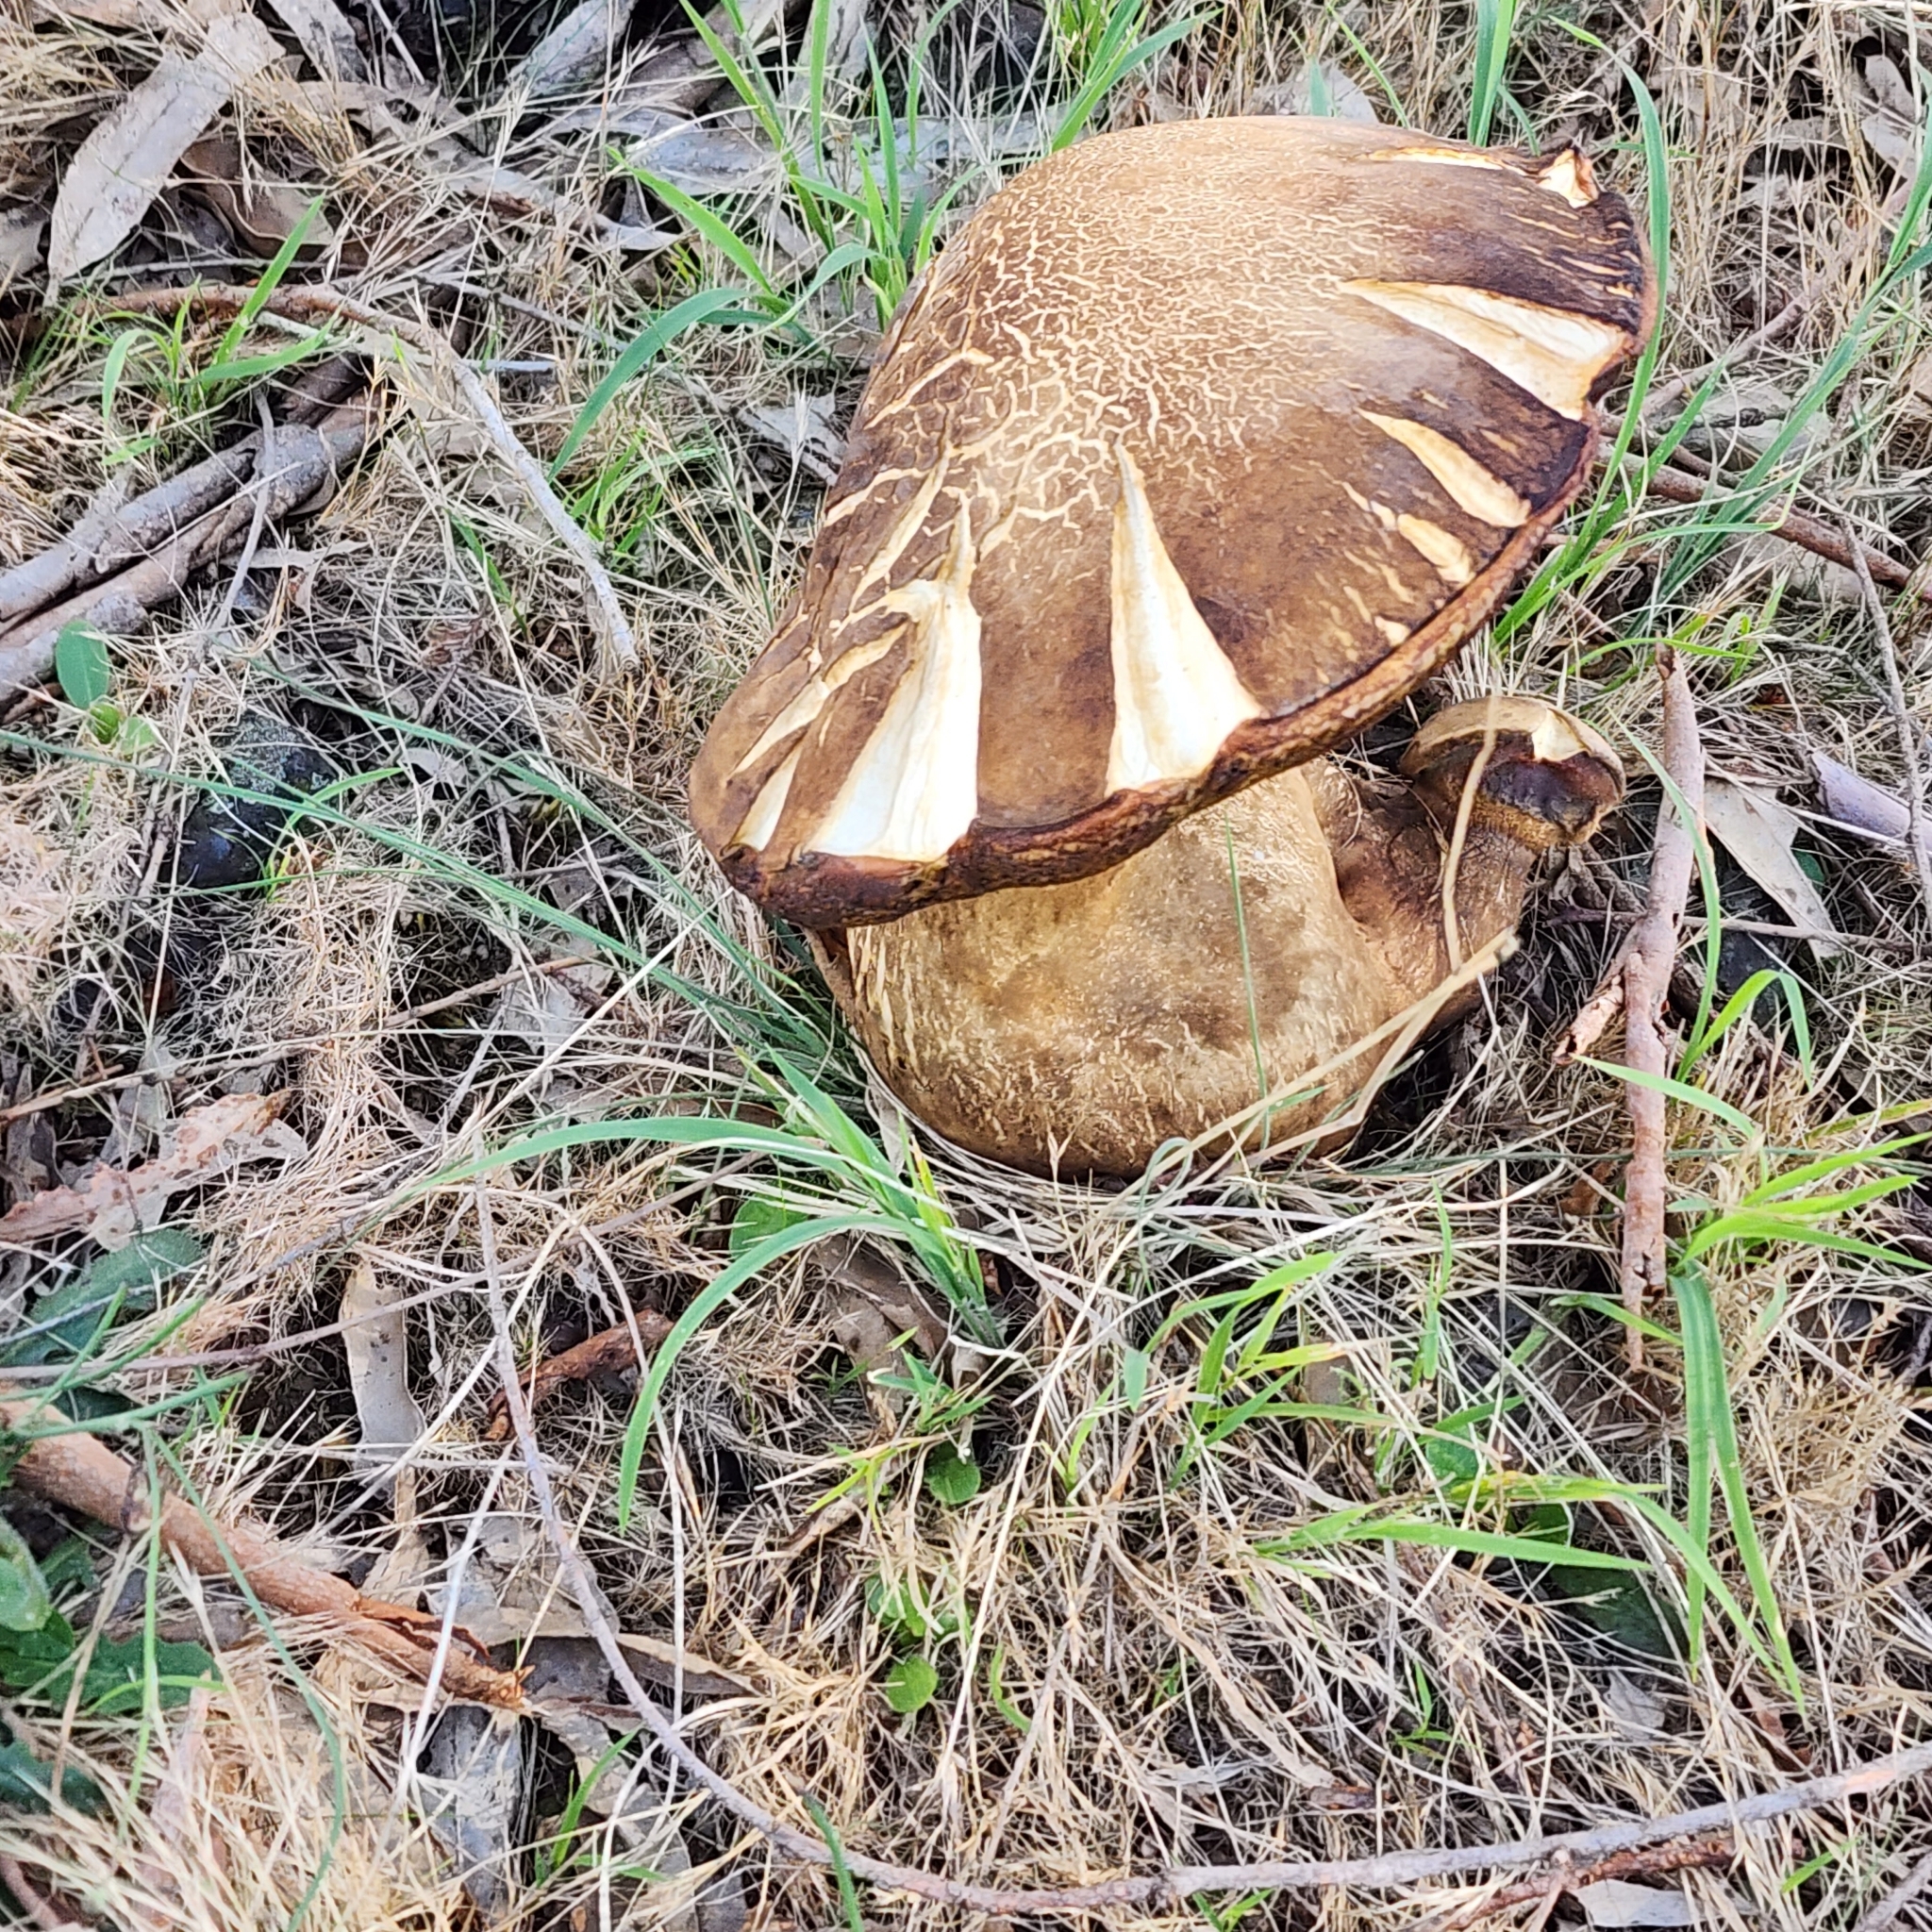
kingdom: Fungi
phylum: Basidiomycota
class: Agaricomycetes
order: Boletales
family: Boletinellaceae
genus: Phlebopus
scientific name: Phlebopus marginatus
